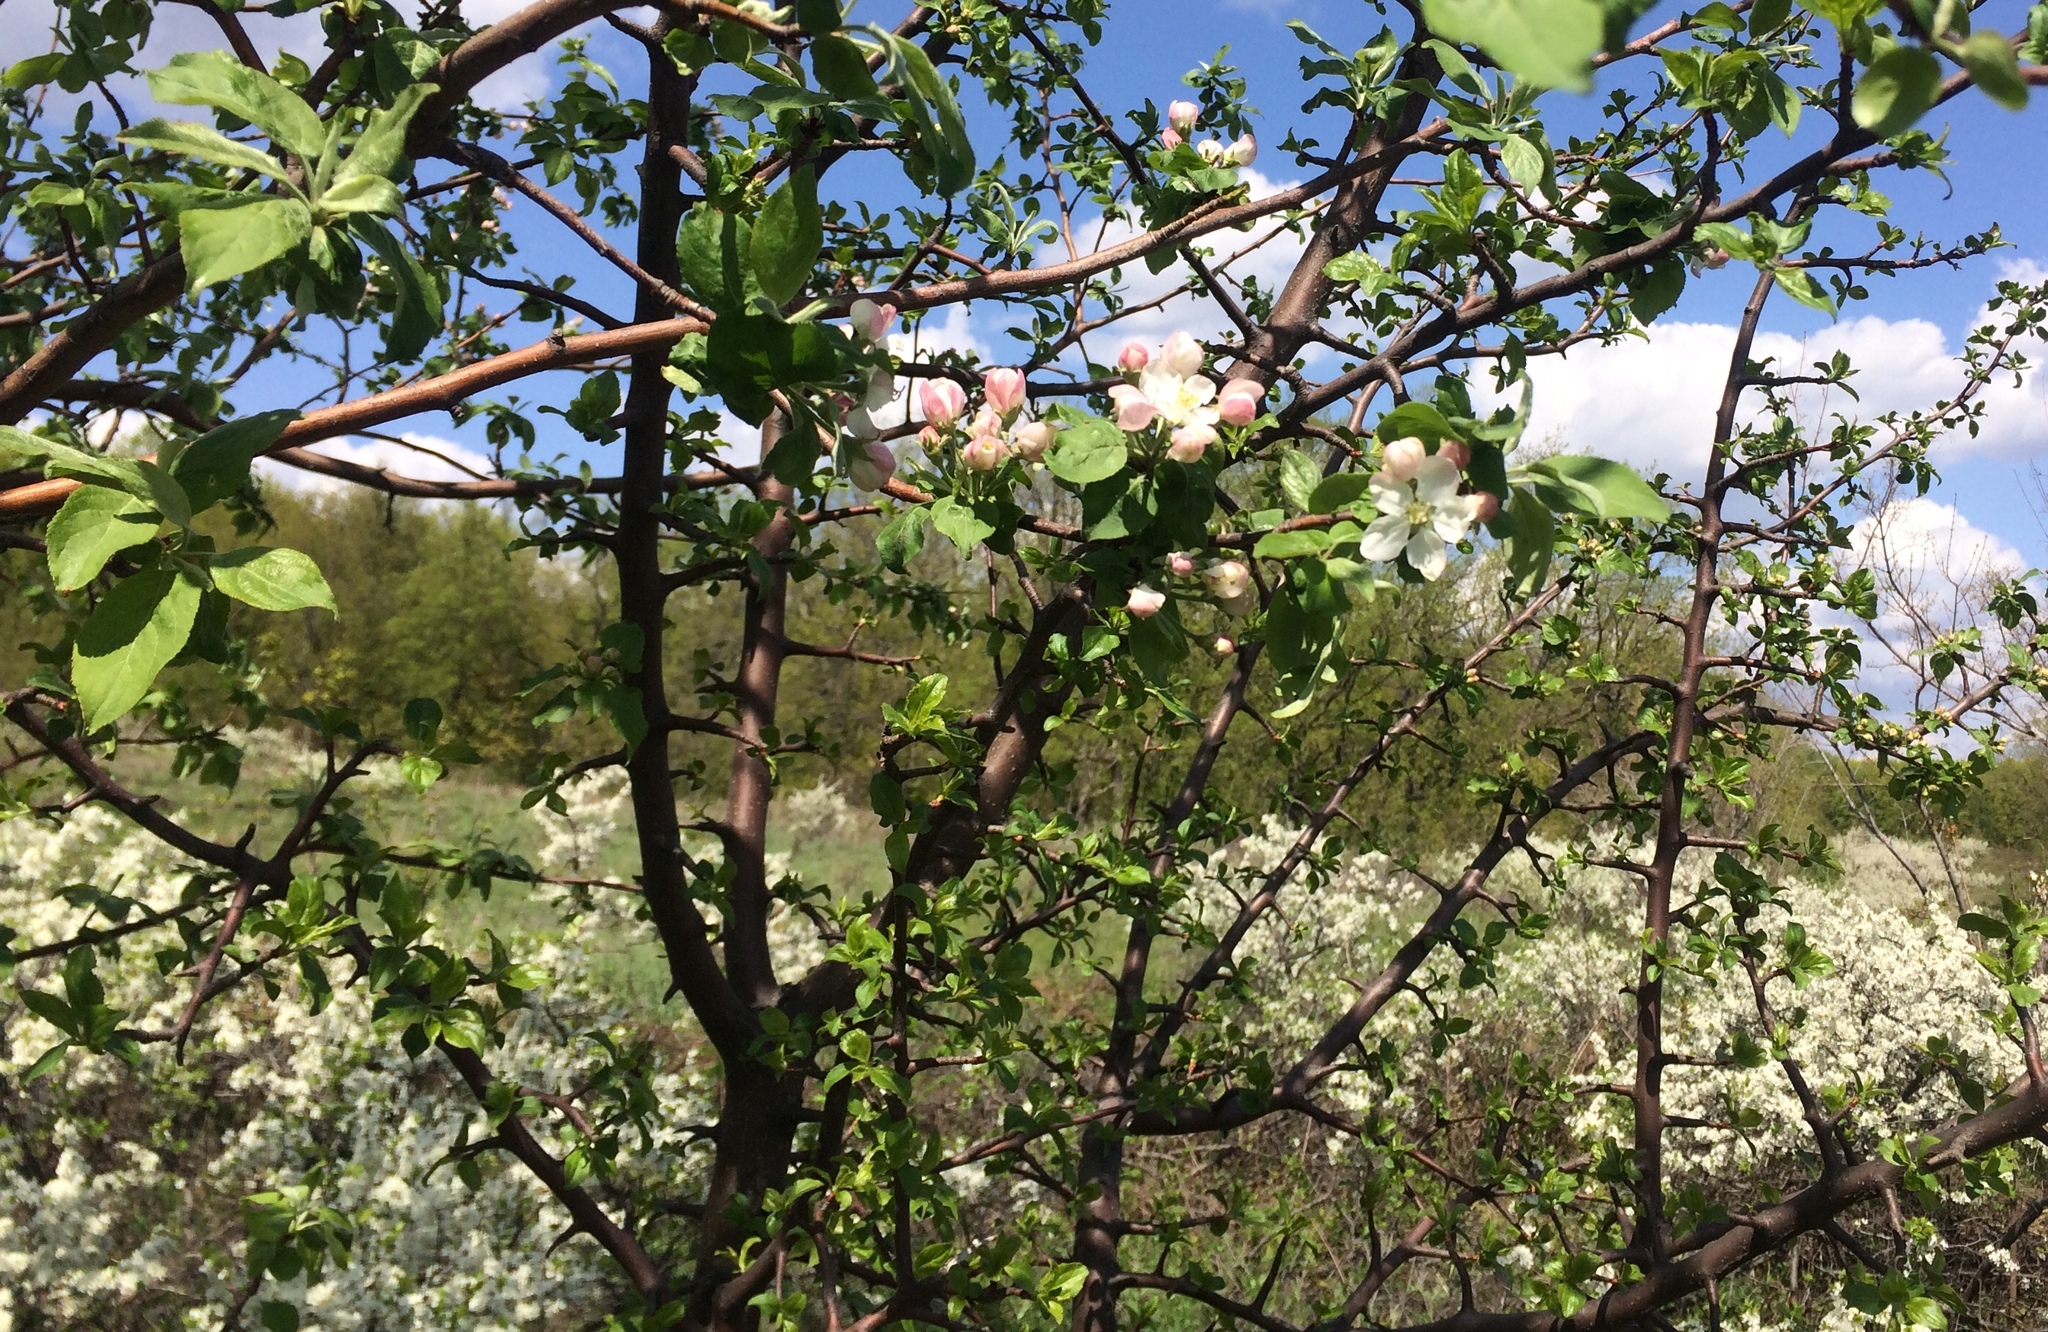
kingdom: Plantae
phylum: Tracheophyta
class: Magnoliopsida
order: Rosales
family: Rosaceae
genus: Malus
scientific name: Malus domestica
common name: Apple
